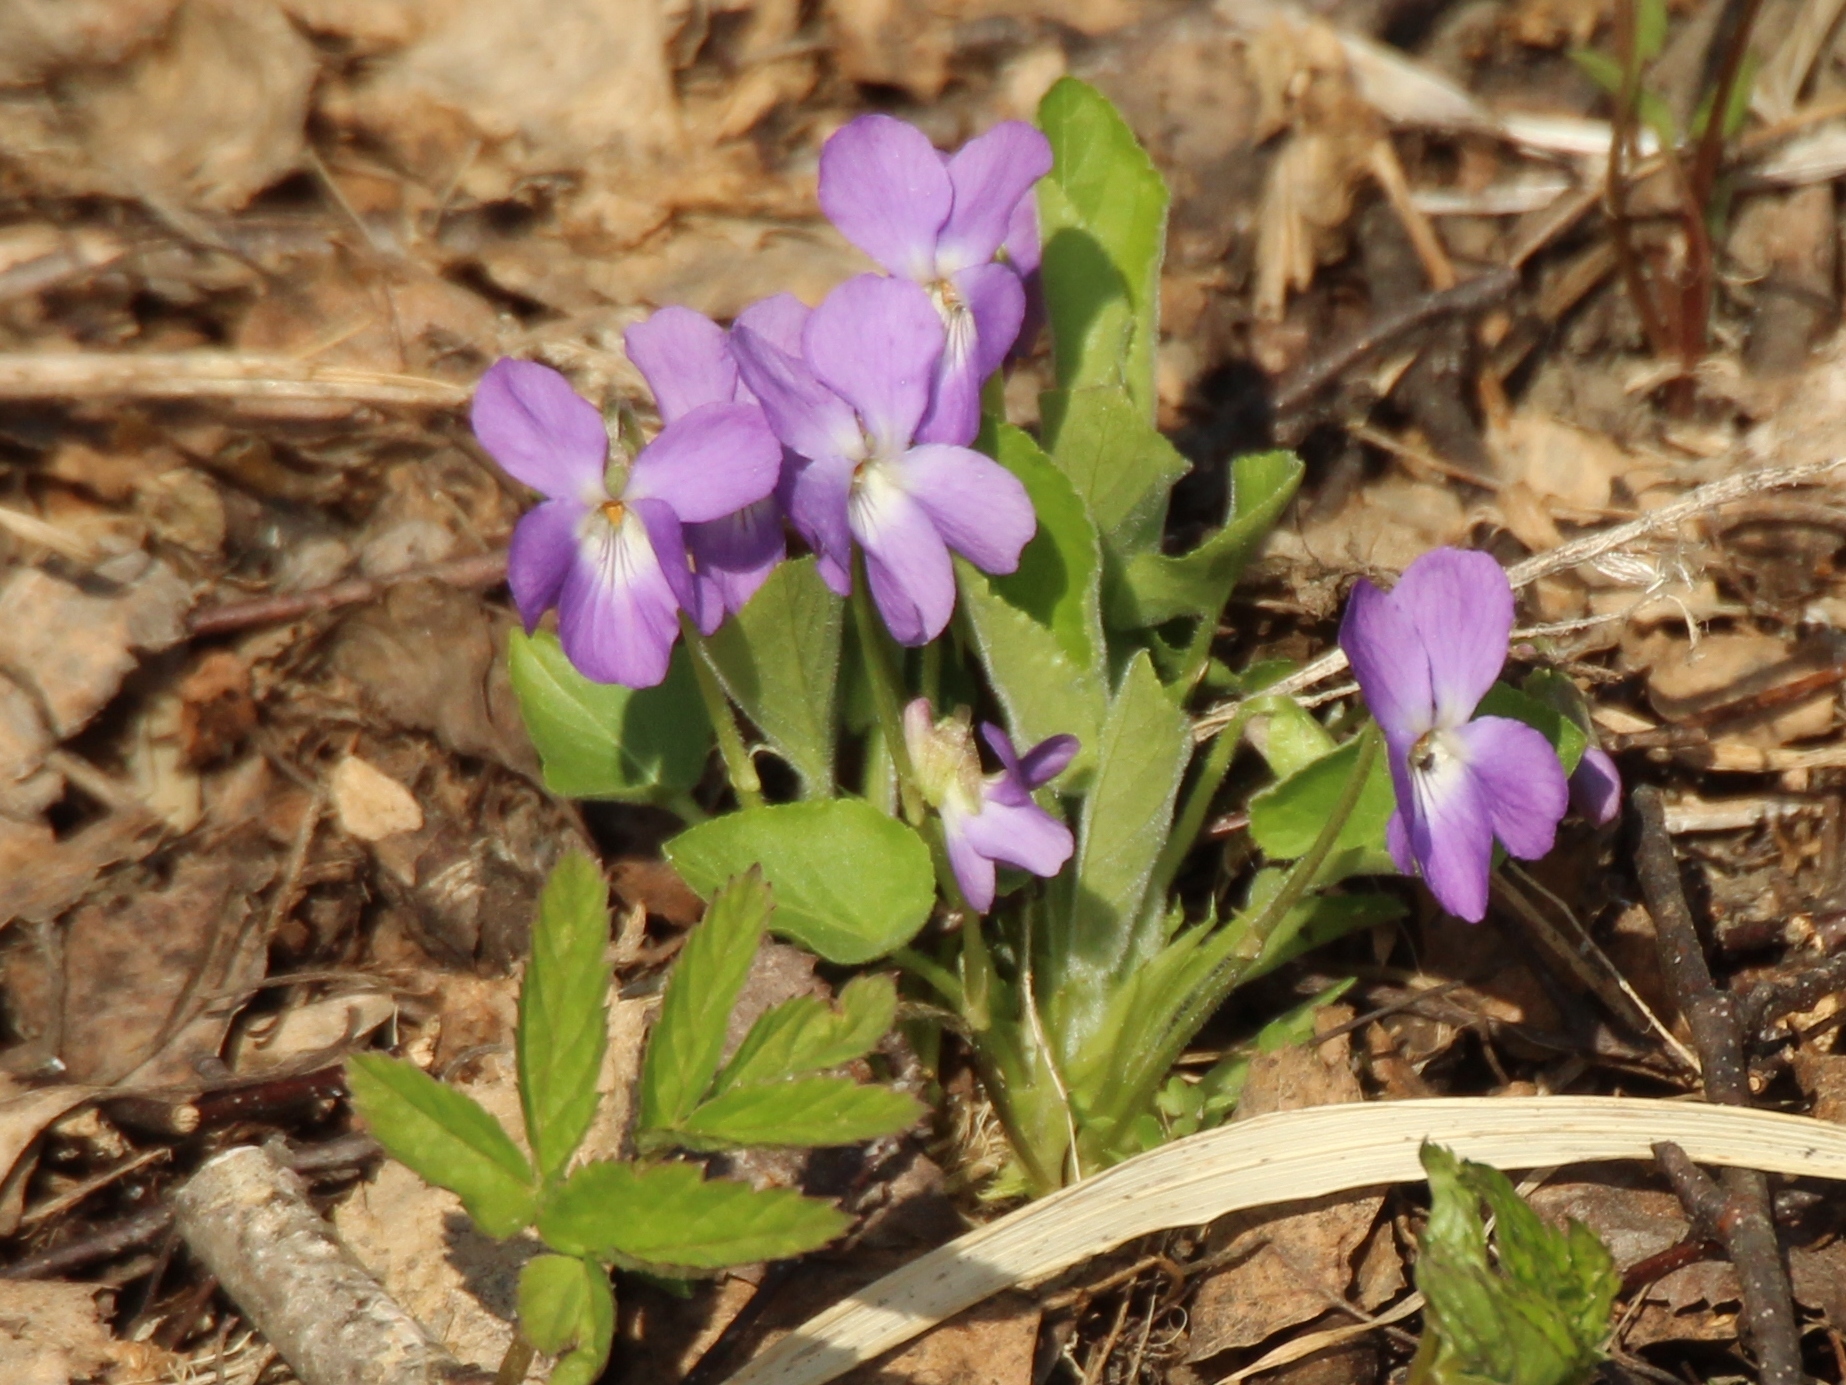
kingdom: Plantae
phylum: Tracheophyta
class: Magnoliopsida
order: Malpighiales
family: Violaceae
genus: Viola
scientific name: Viola hirta
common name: Hairy violet
